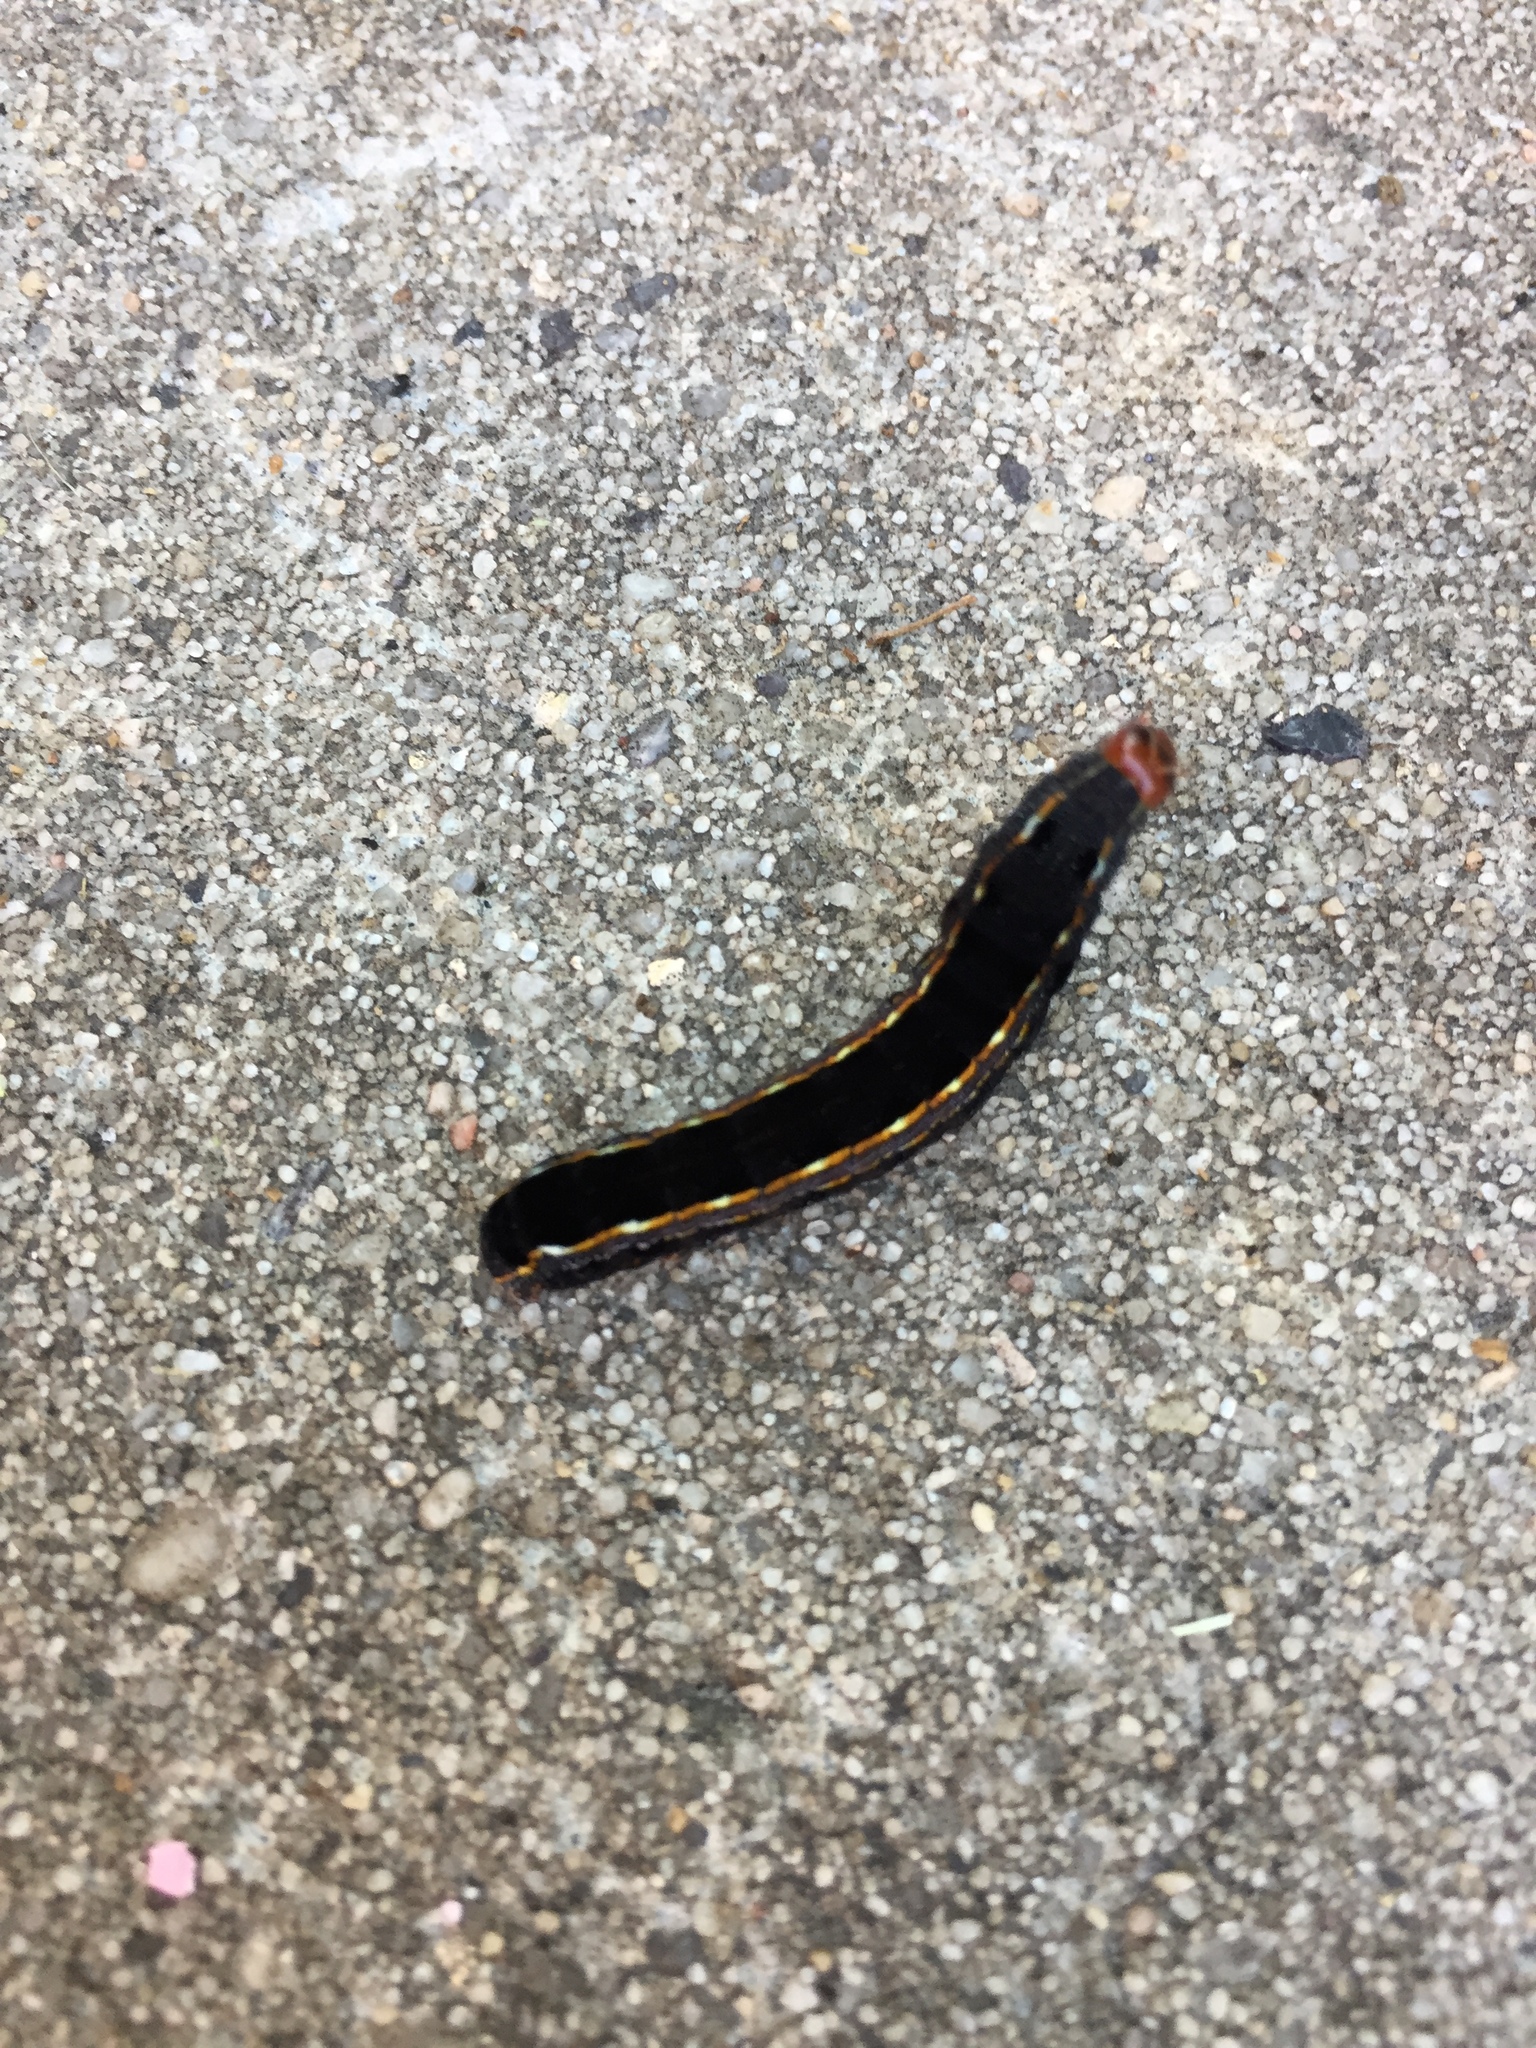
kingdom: Animalia
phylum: Arthropoda
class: Insecta
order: Lepidoptera
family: Noctuidae
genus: Spodoptera
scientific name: Spodoptera ornithogalli
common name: Yellow-striped armyworm
